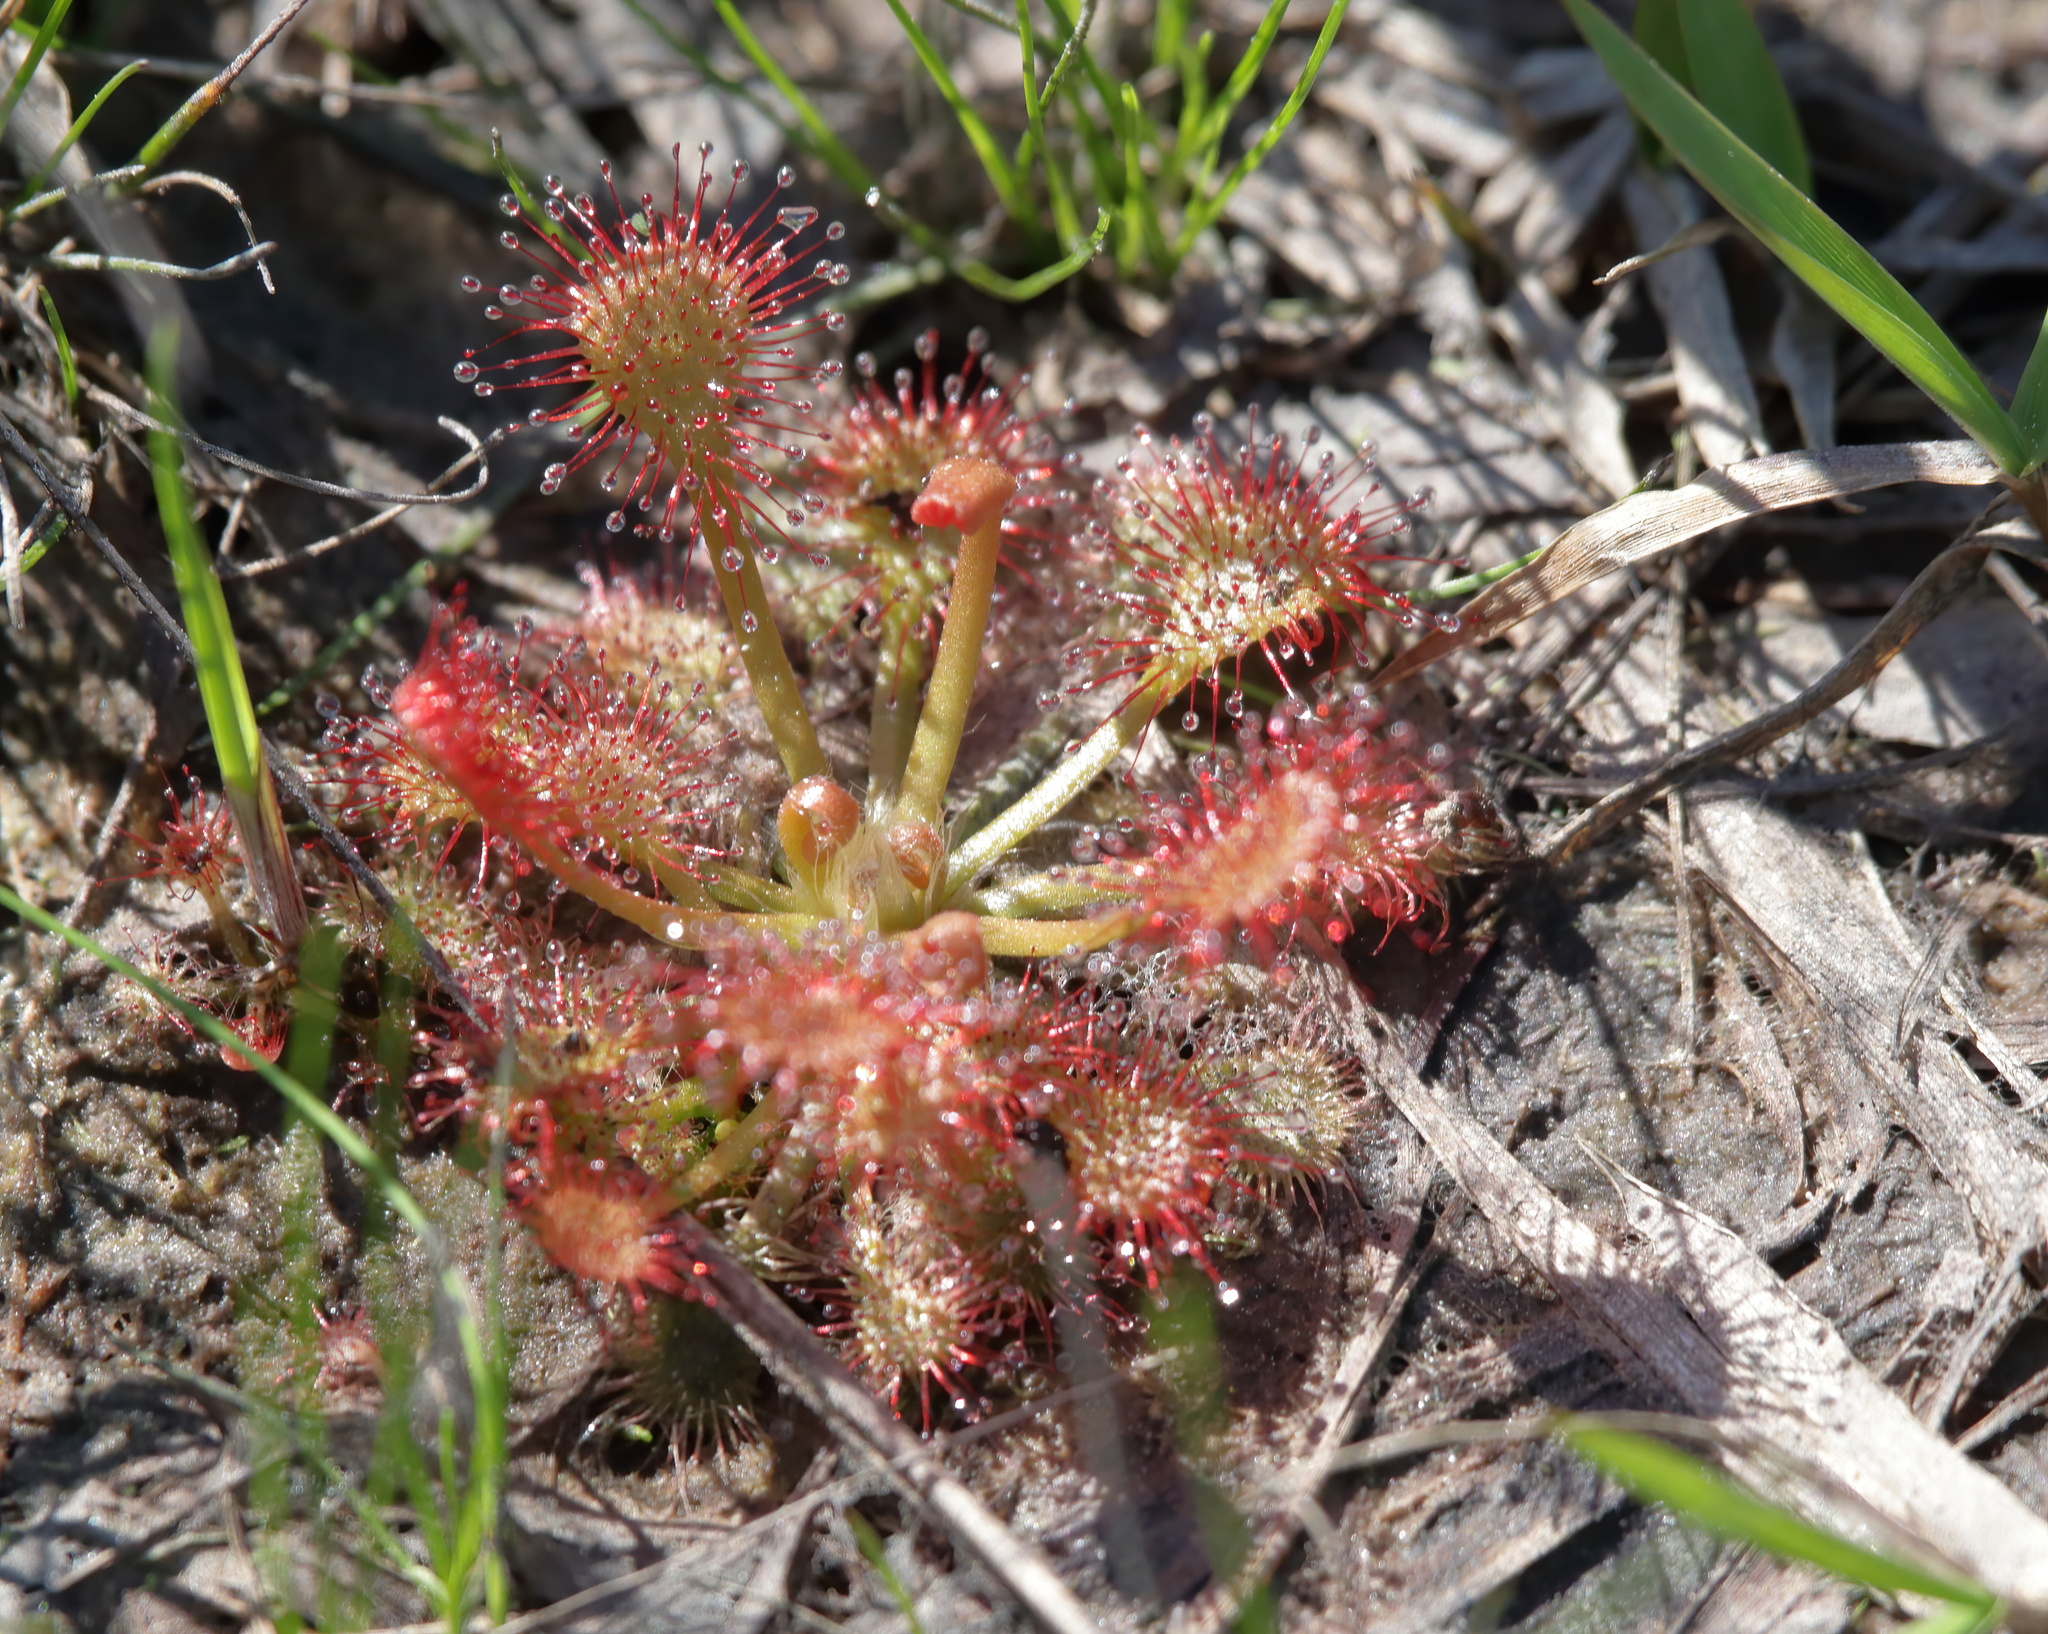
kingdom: Plantae
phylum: Tracheophyta
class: Magnoliopsida
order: Caryophyllales
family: Droseraceae
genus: Drosera
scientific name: Drosera capillaris
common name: Pink sundew
